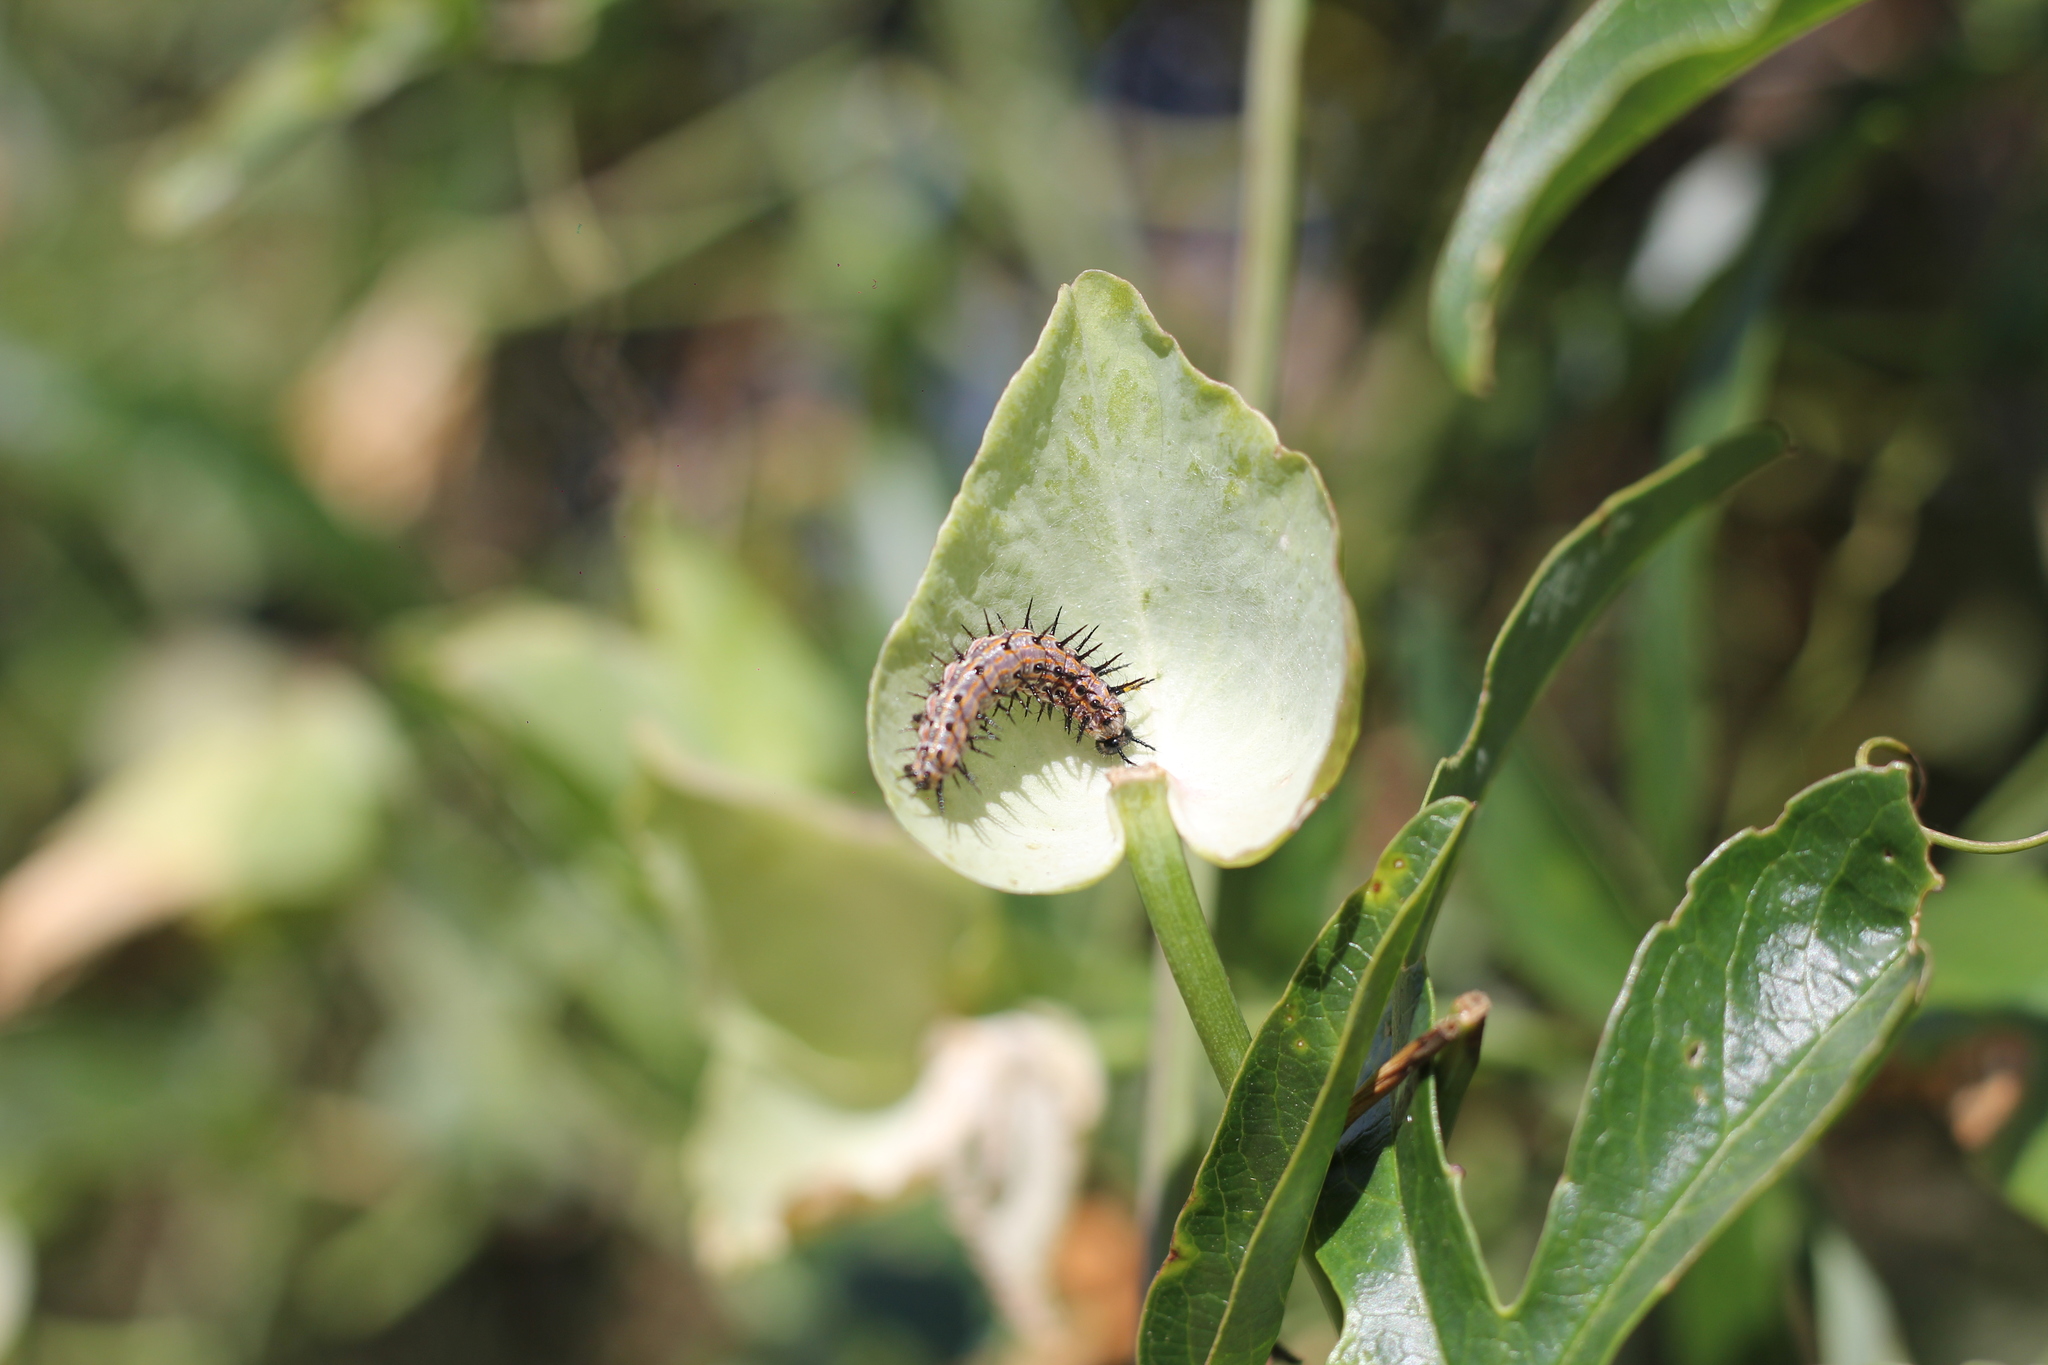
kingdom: Animalia
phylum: Arthropoda
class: Insecta
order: Lepidoptera
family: Nymphalidae
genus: Dione
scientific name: Dione vanillae
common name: Gulf fritillary
